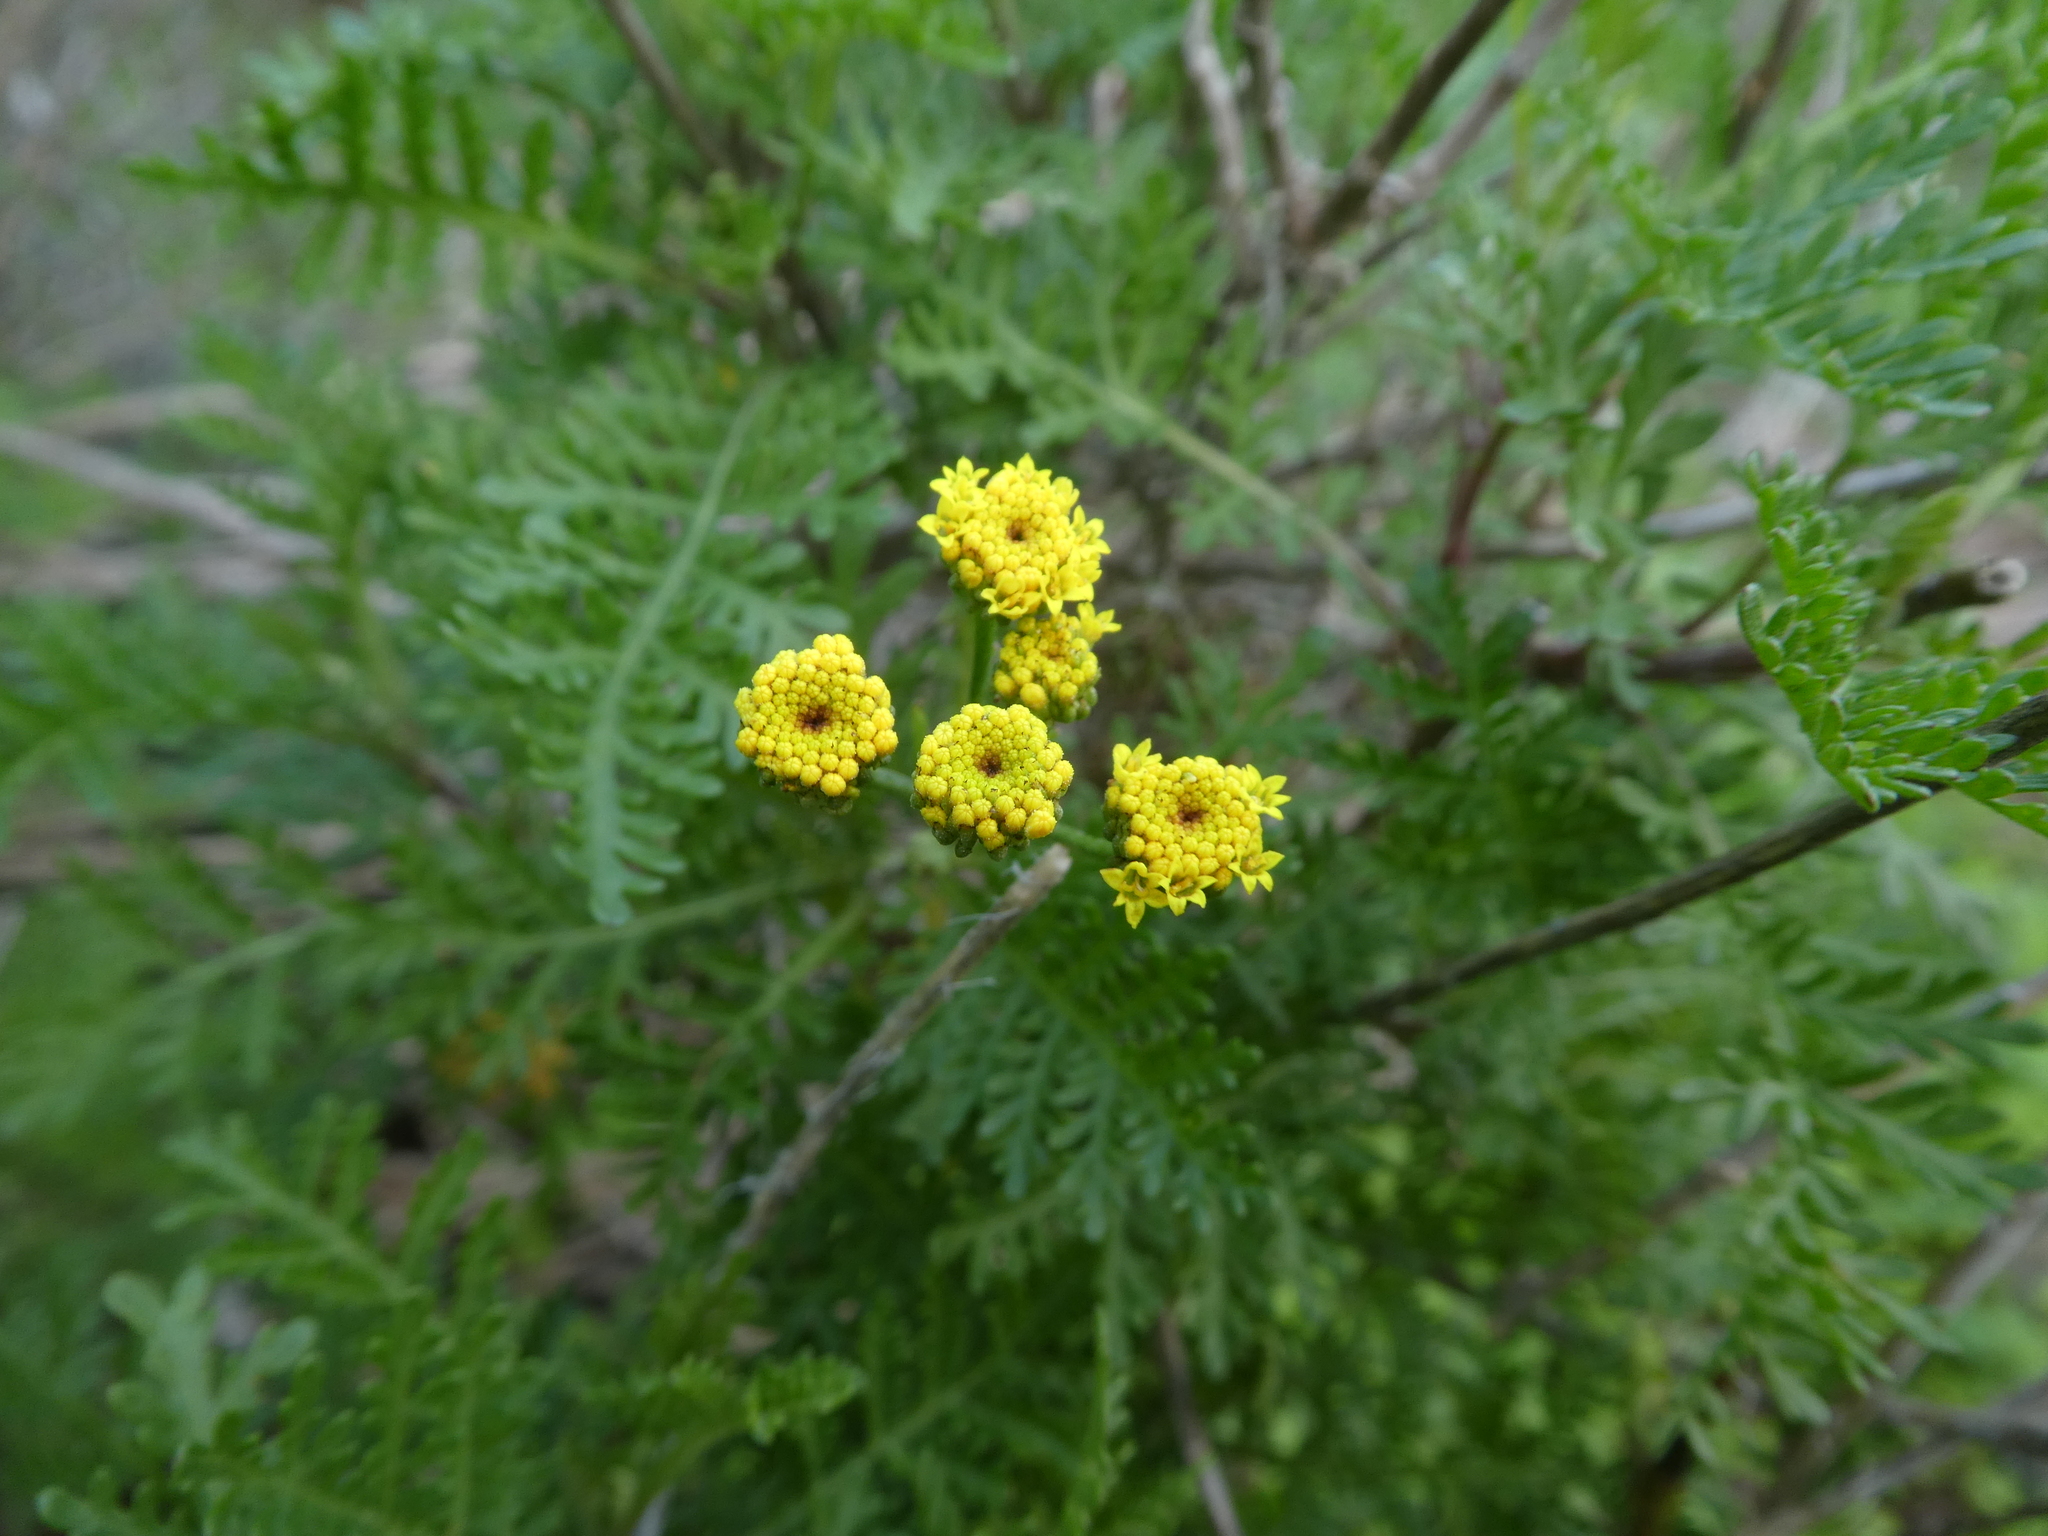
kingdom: Plantae
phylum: Tracheophyta
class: Magnoliopsida
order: Asterales
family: Asteraceae
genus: Gonospermum
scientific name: Gonospermum fruticosum
